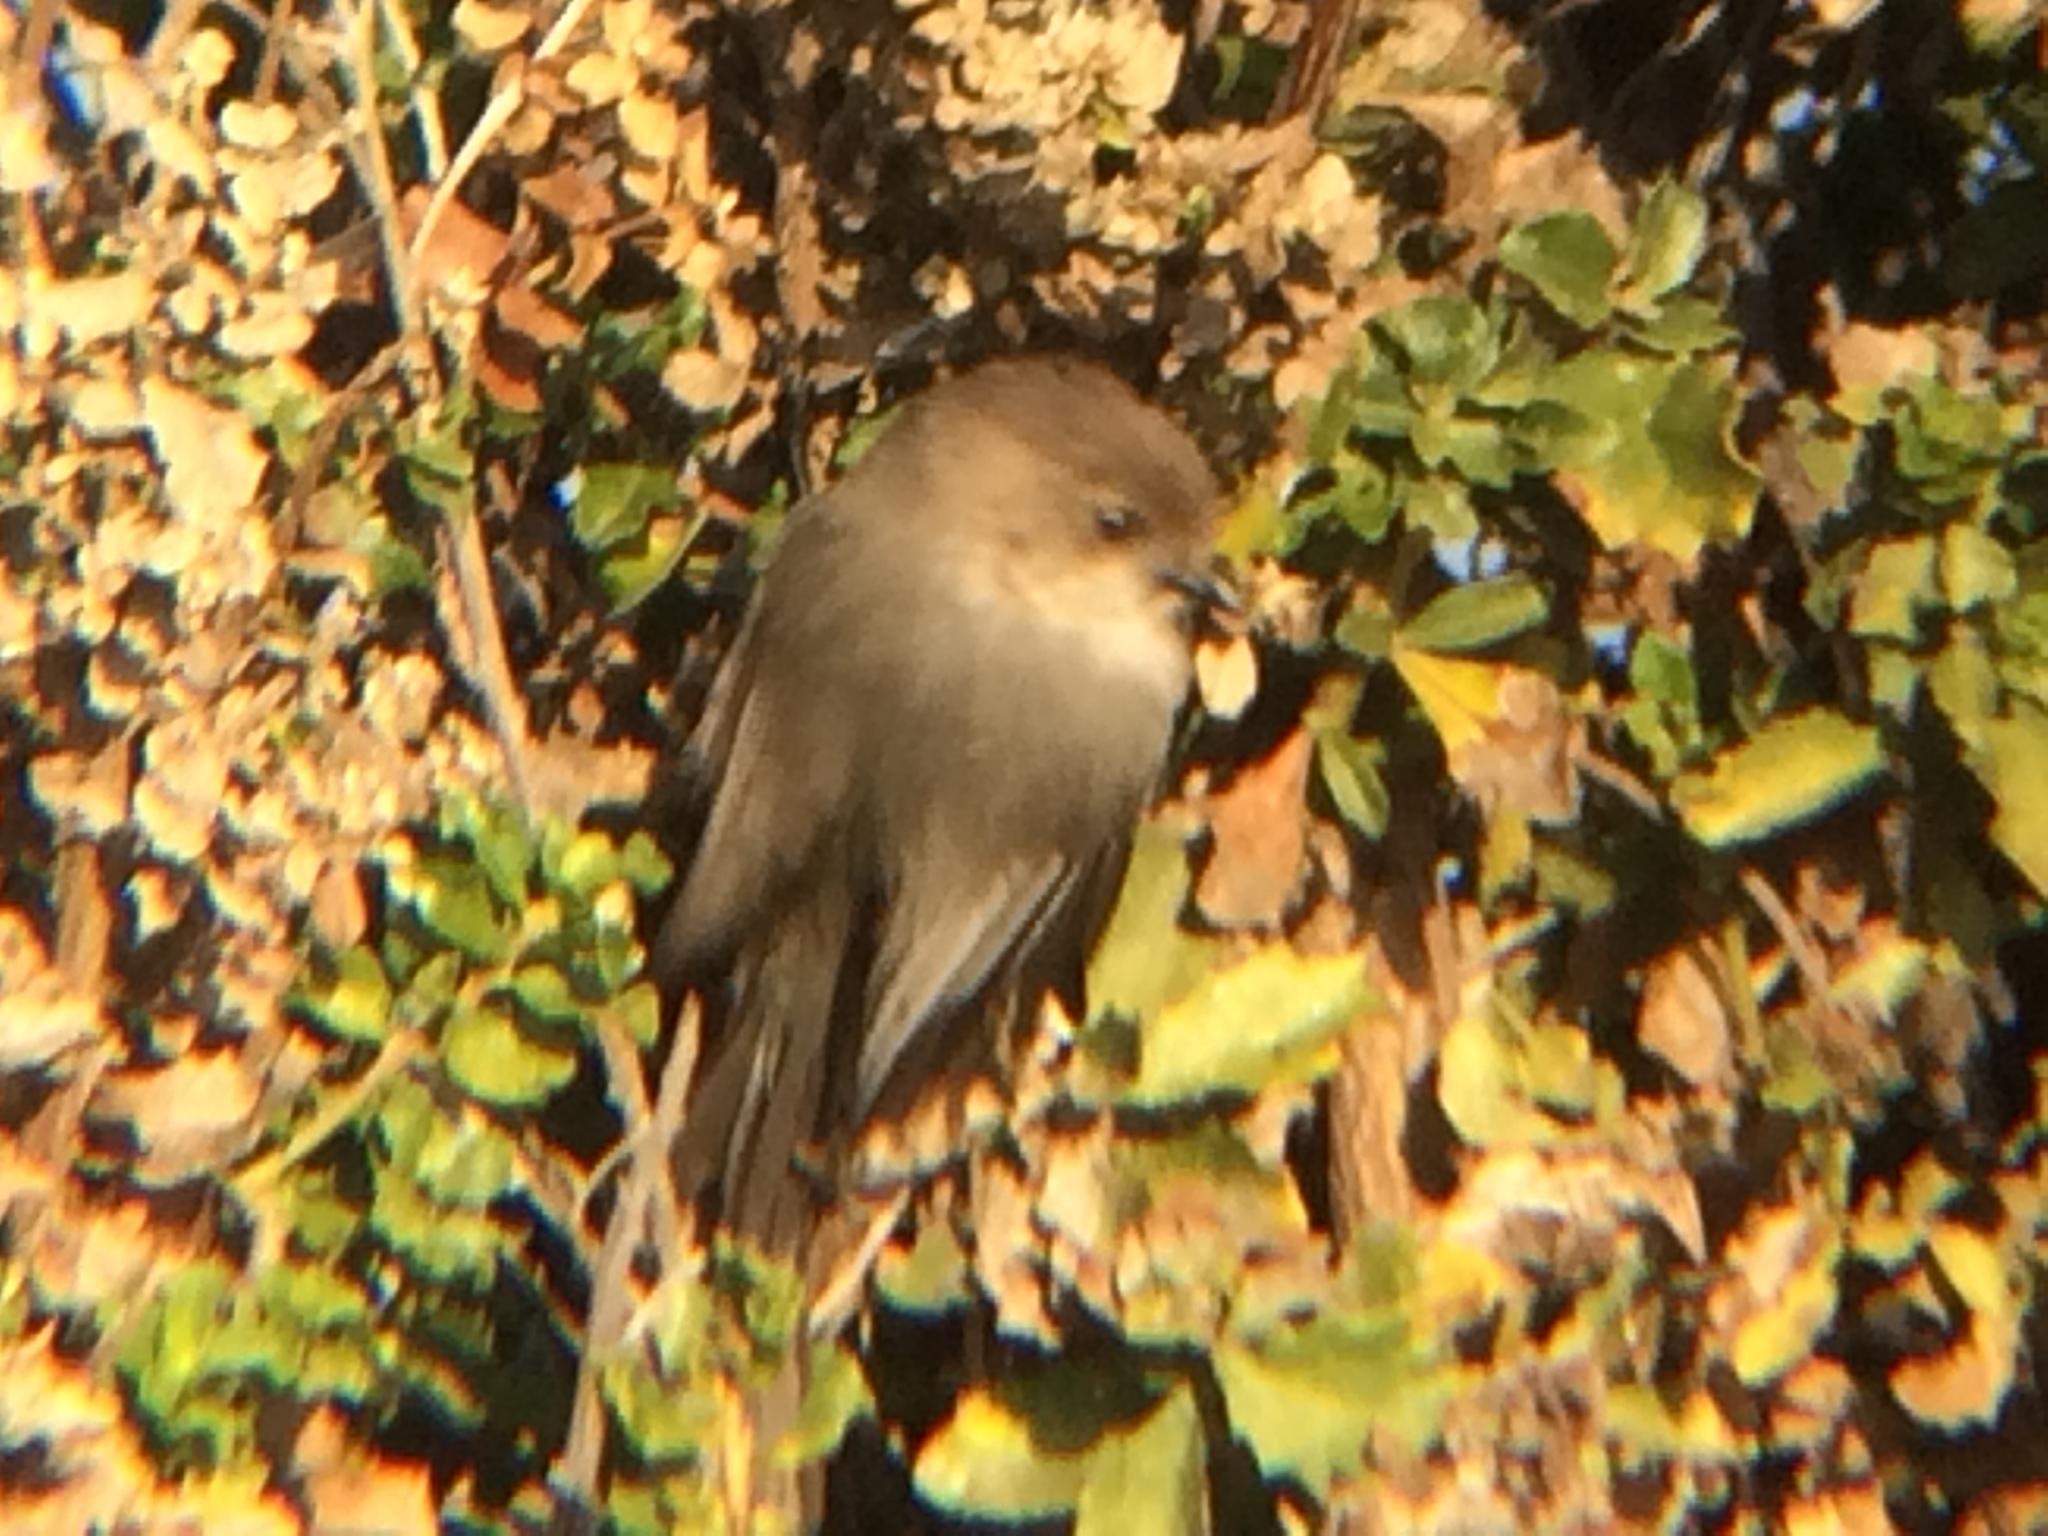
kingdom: Animalia
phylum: Chordata
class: Aves
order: Passeriformes
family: Aegithalidae
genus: Psaltriparus
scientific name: Psaltriparus minimus
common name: American bushtit
